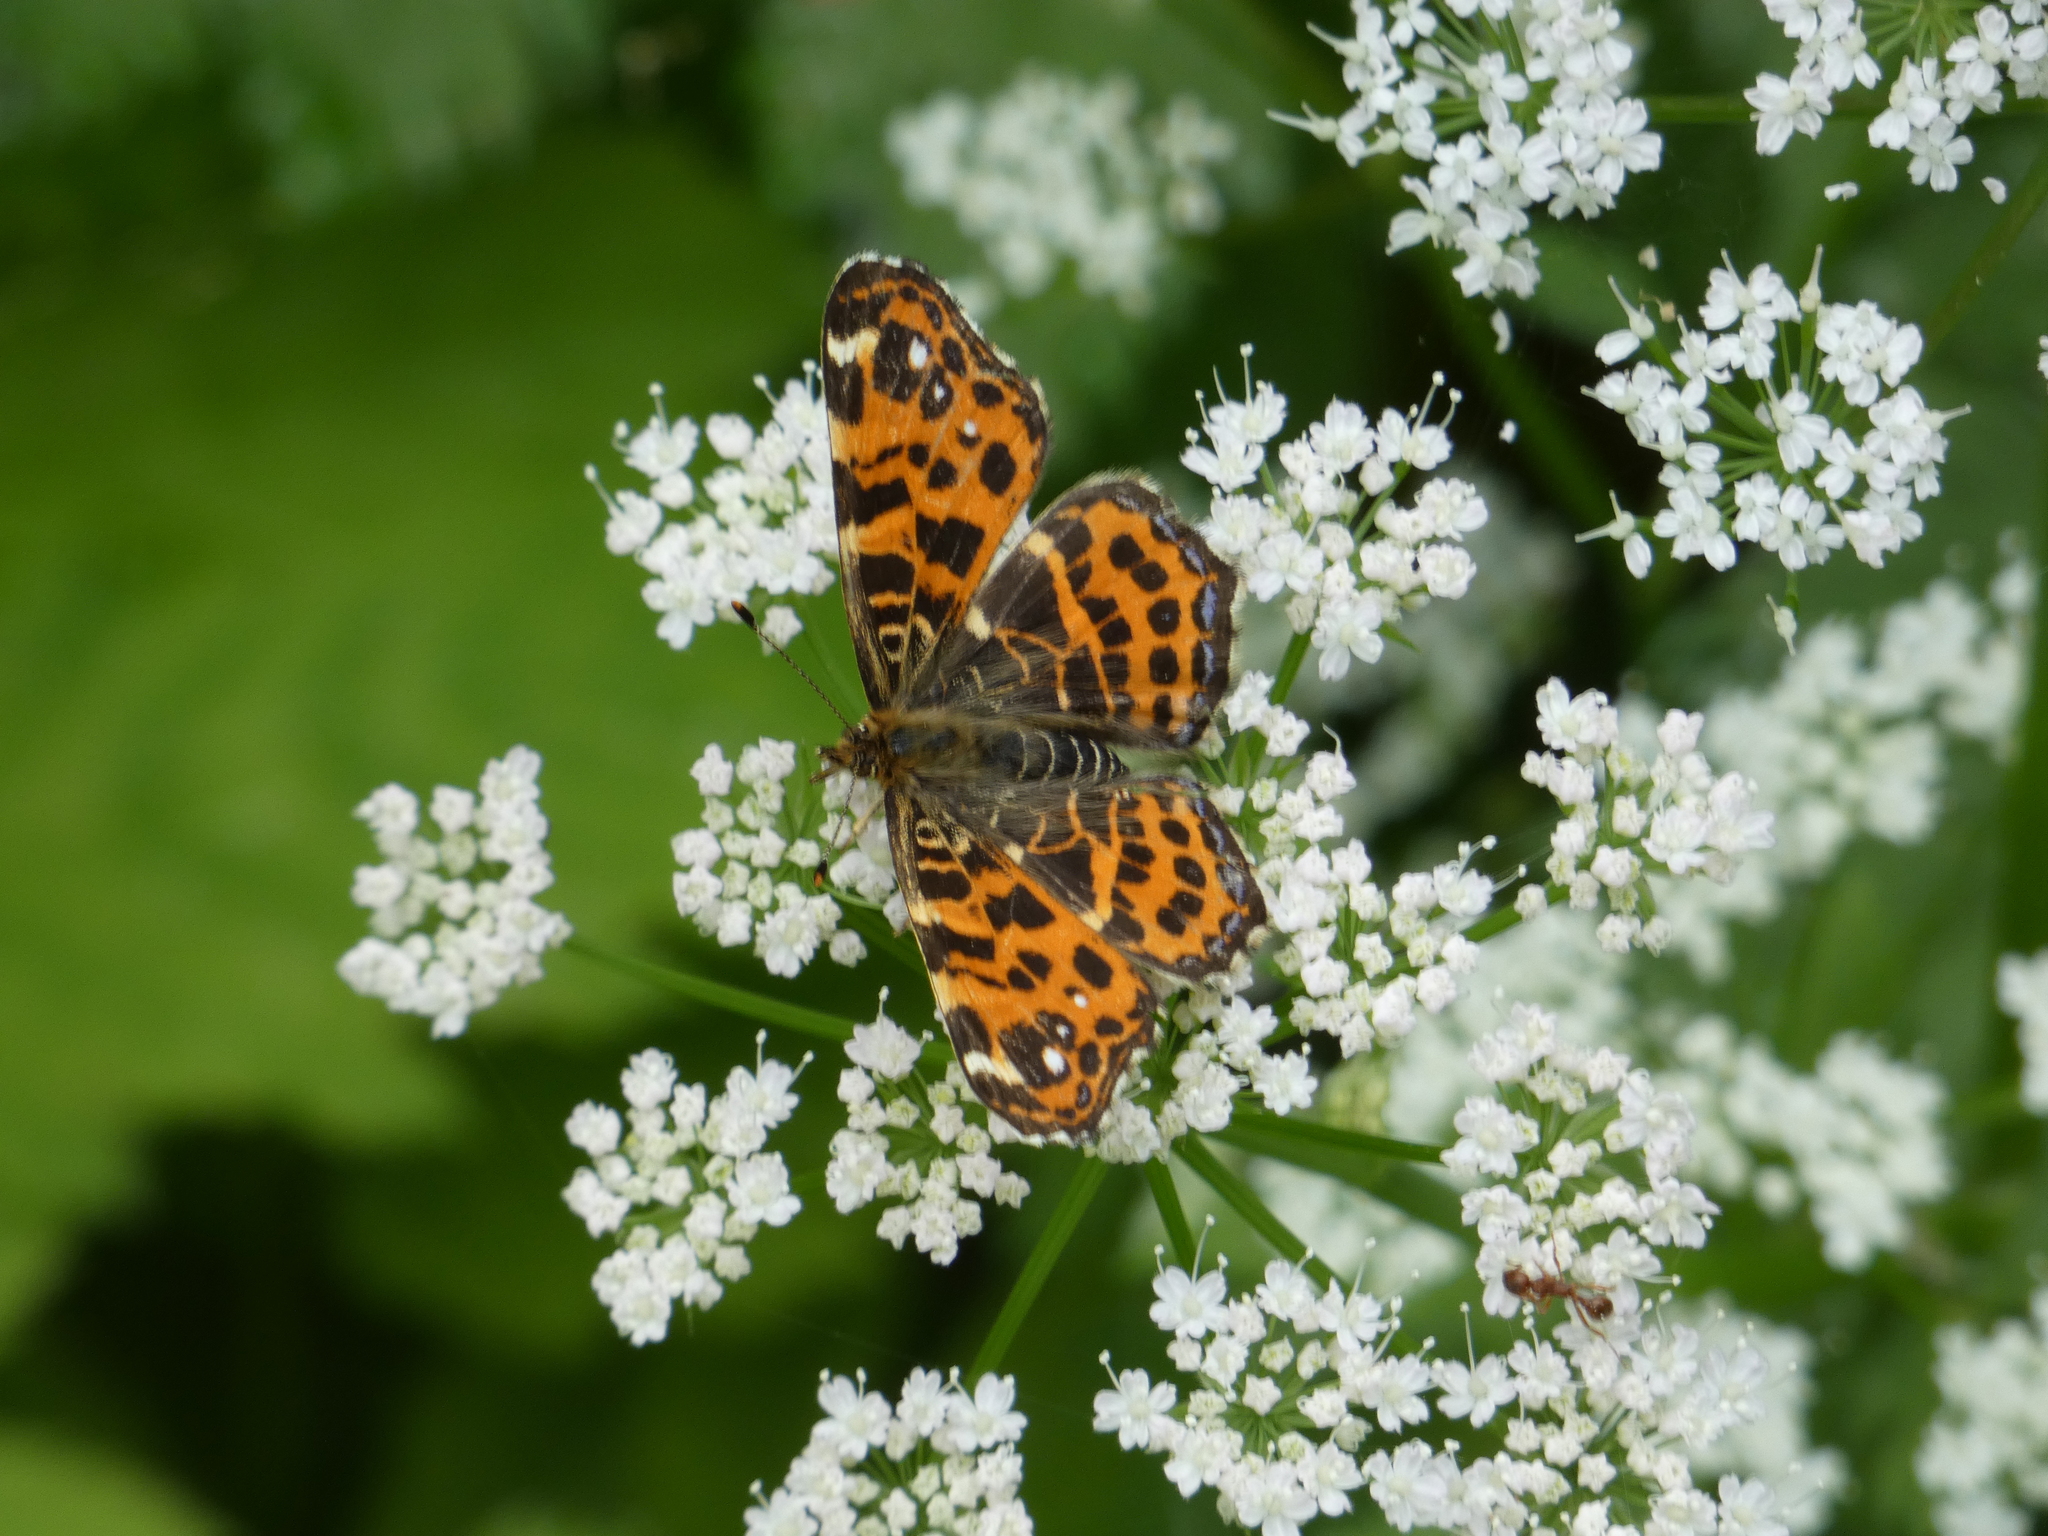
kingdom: Animalia
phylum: Arthropoda
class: Insecta
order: Lepidoptera
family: Nymphalidae
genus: Araschnia
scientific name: Araschnia levana
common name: Map butterfly
